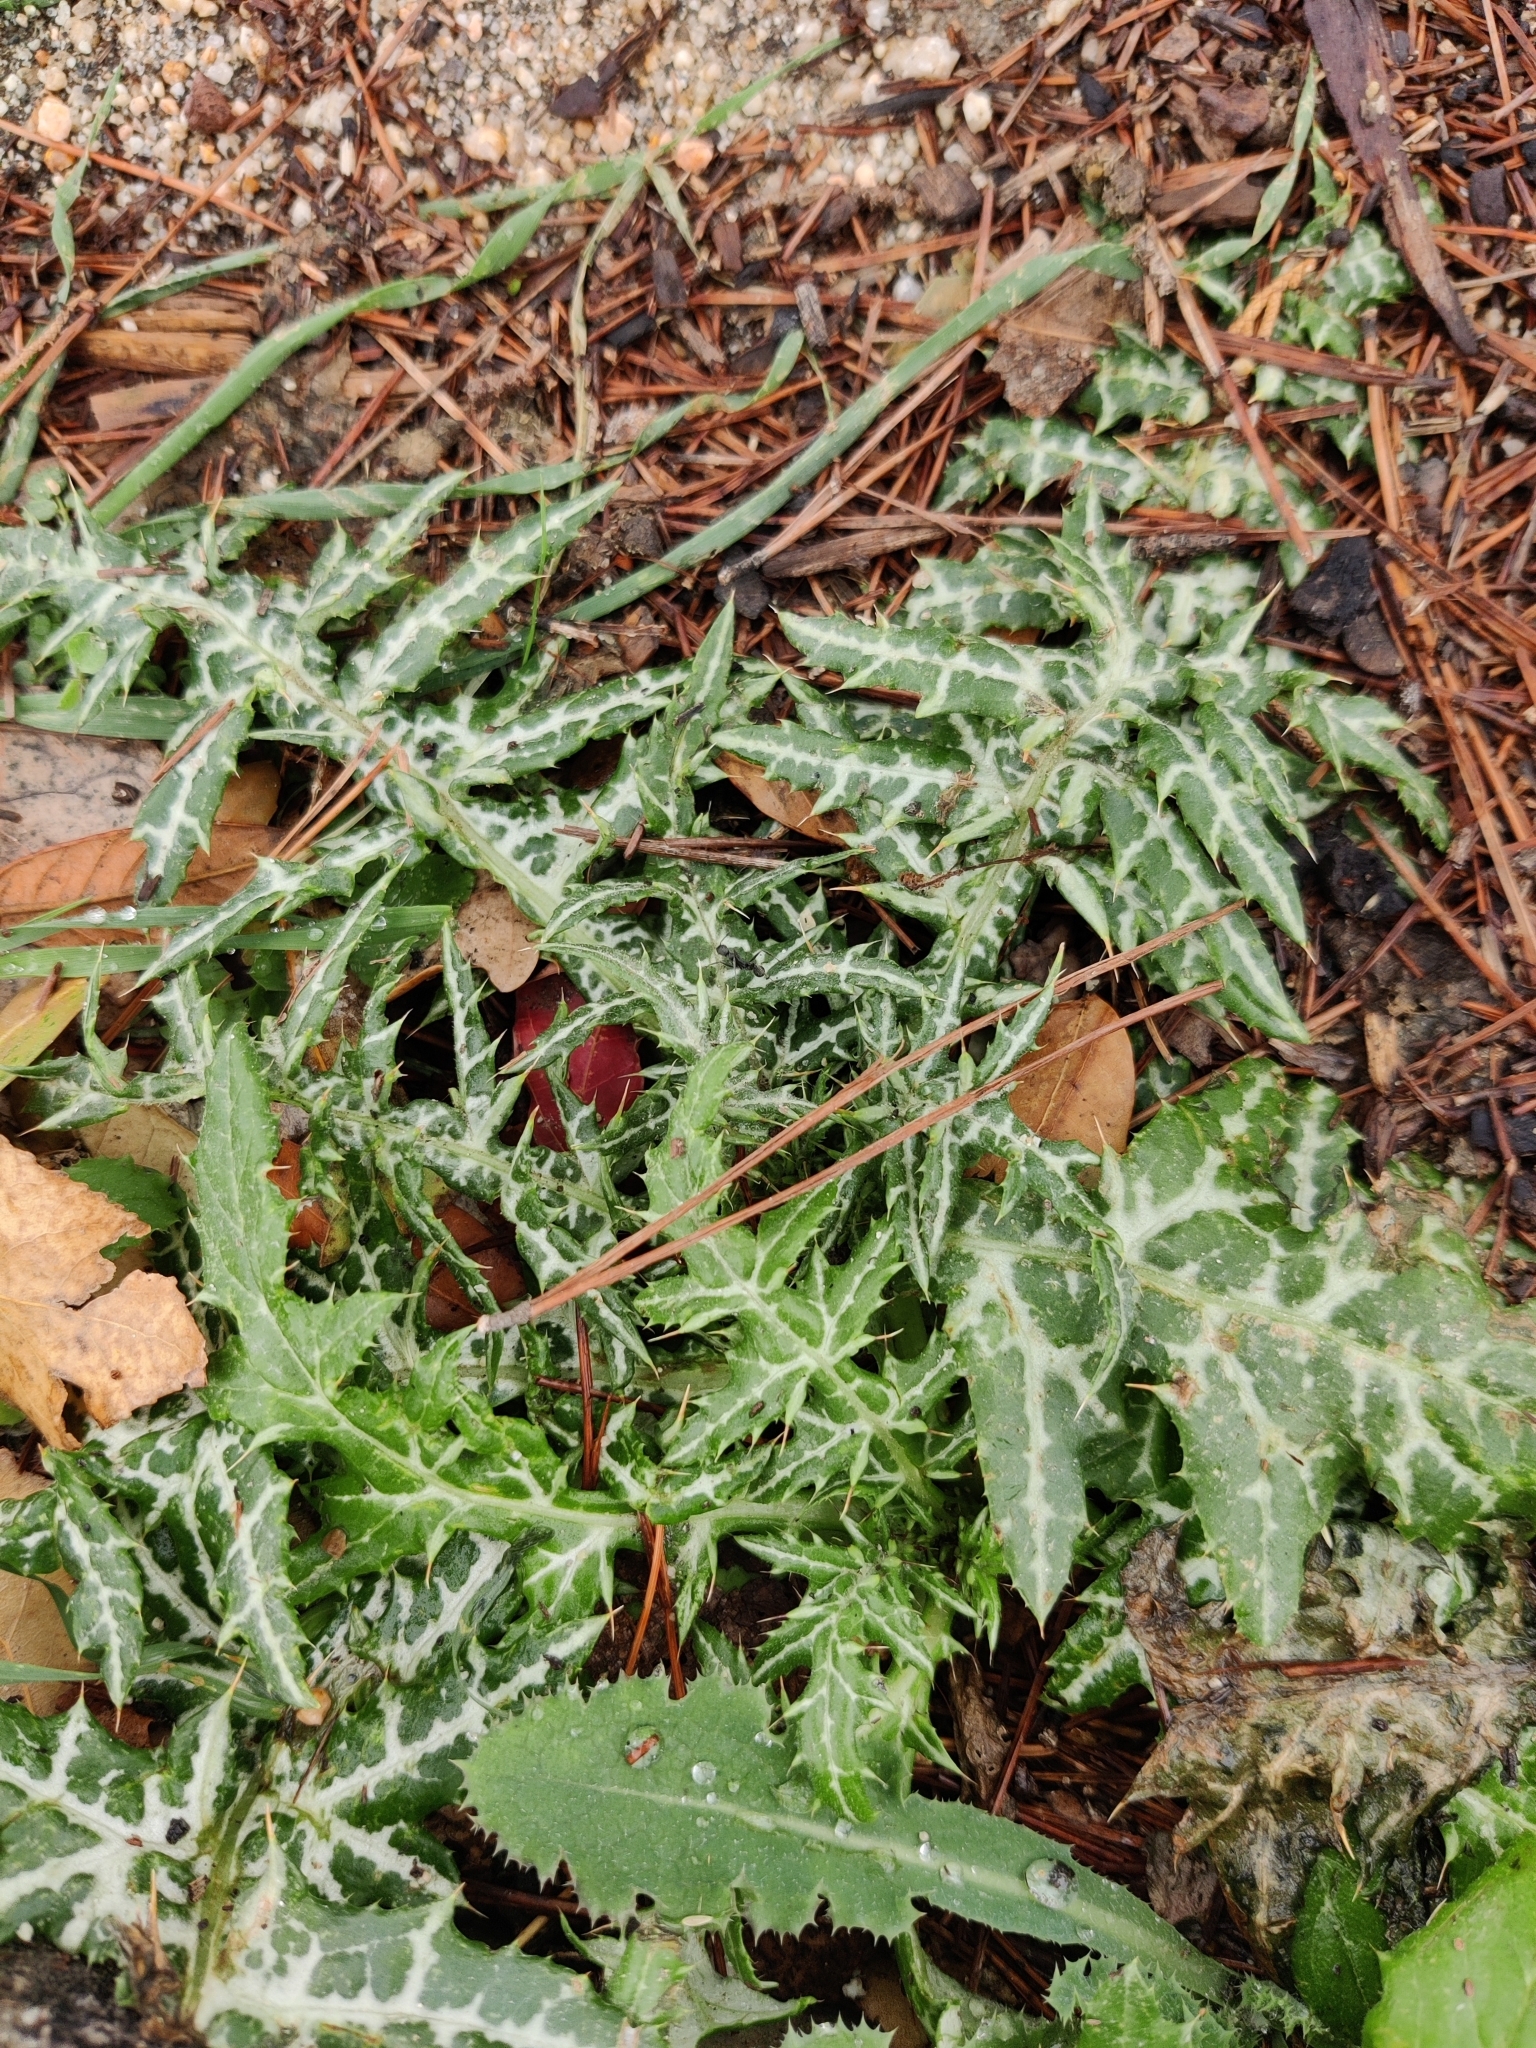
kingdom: Plantae
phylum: Tracheophyta
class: Magnoliopsida
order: Asterales
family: Asteraceae
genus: Galactites
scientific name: Galactites tomentosa
